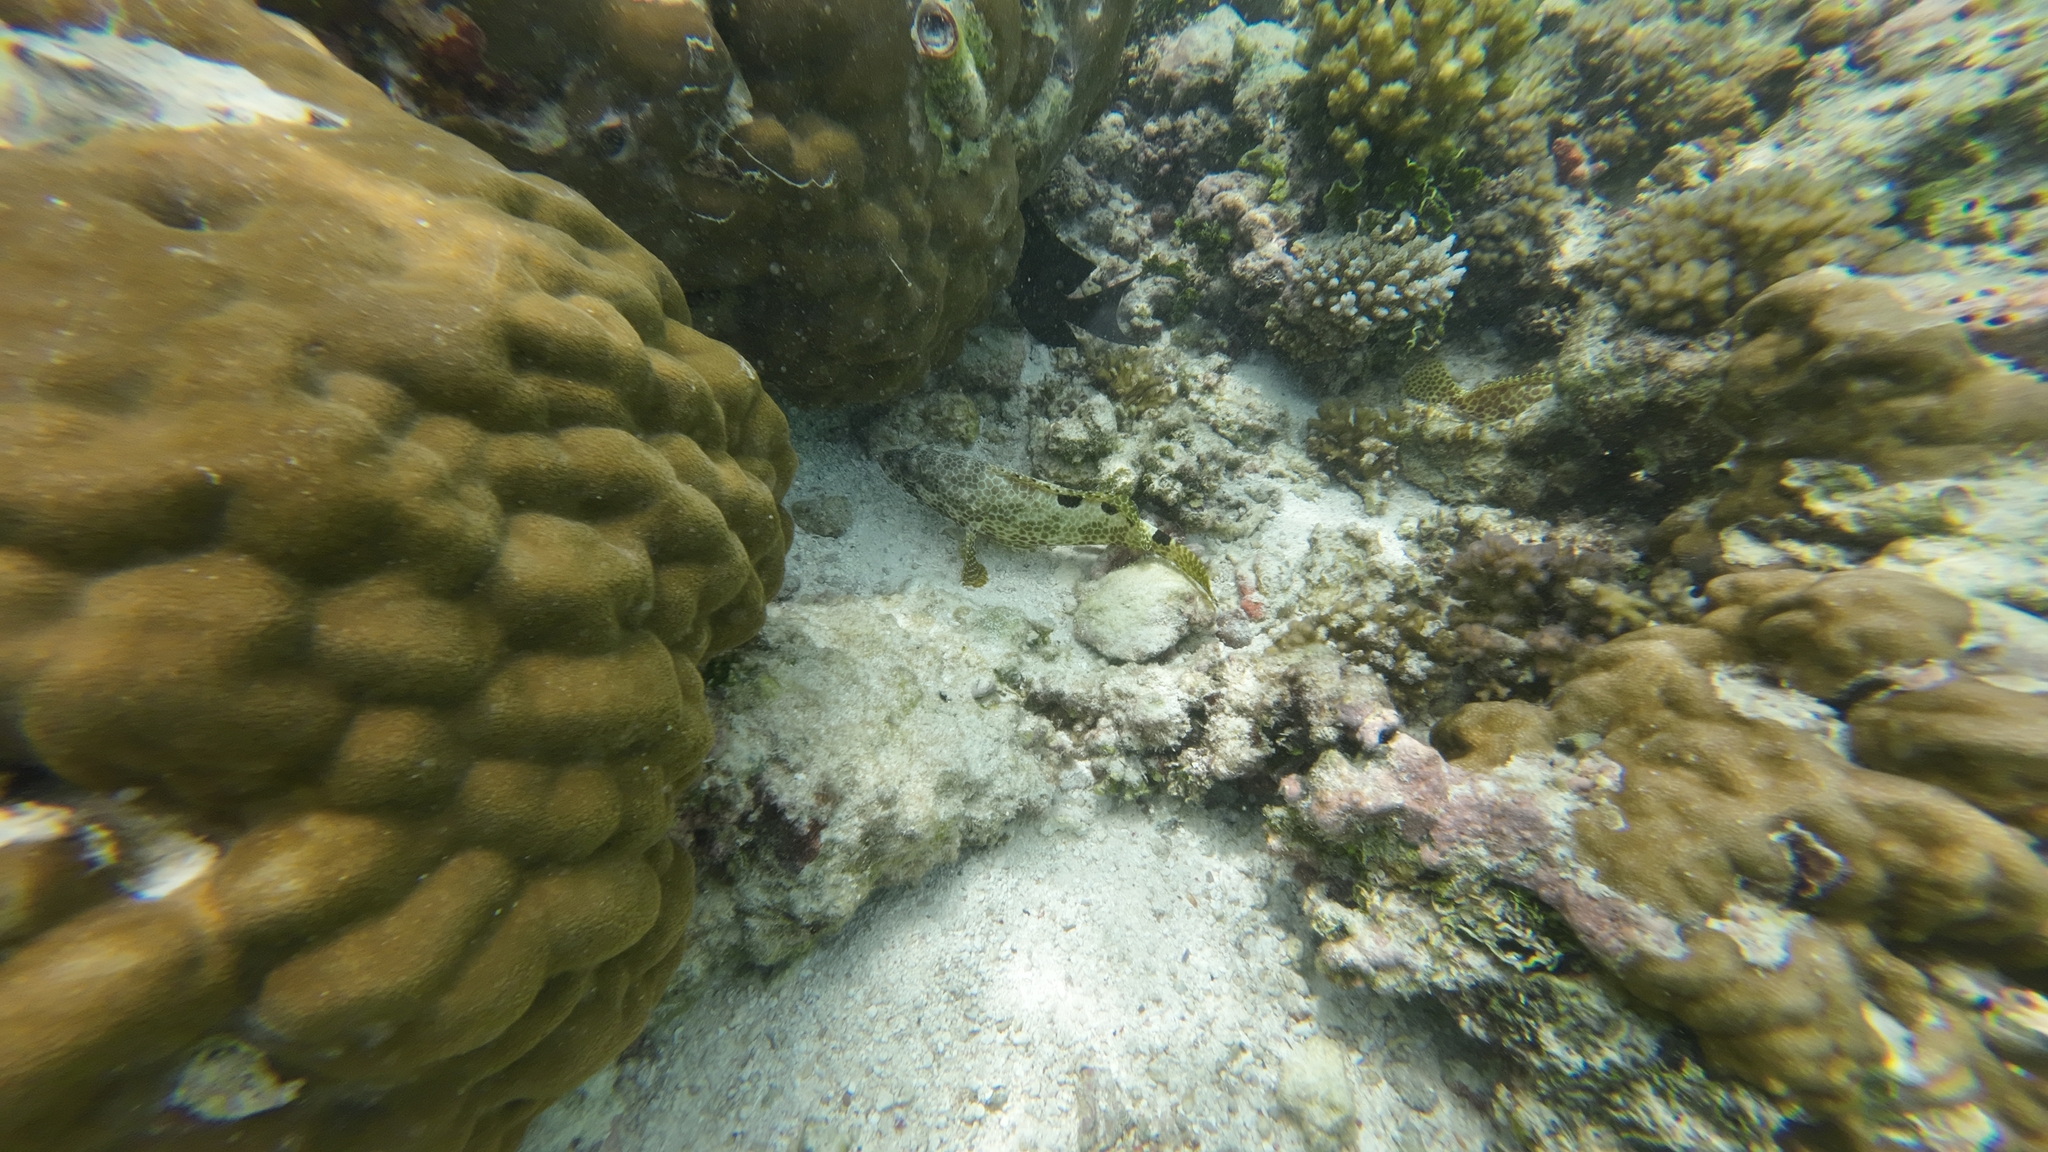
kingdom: Animalia
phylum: Chordata
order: Perciformes
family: Serranidae
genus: Epinephelus
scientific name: Epinephelus spilotoceps
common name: Foursaddle grouper
